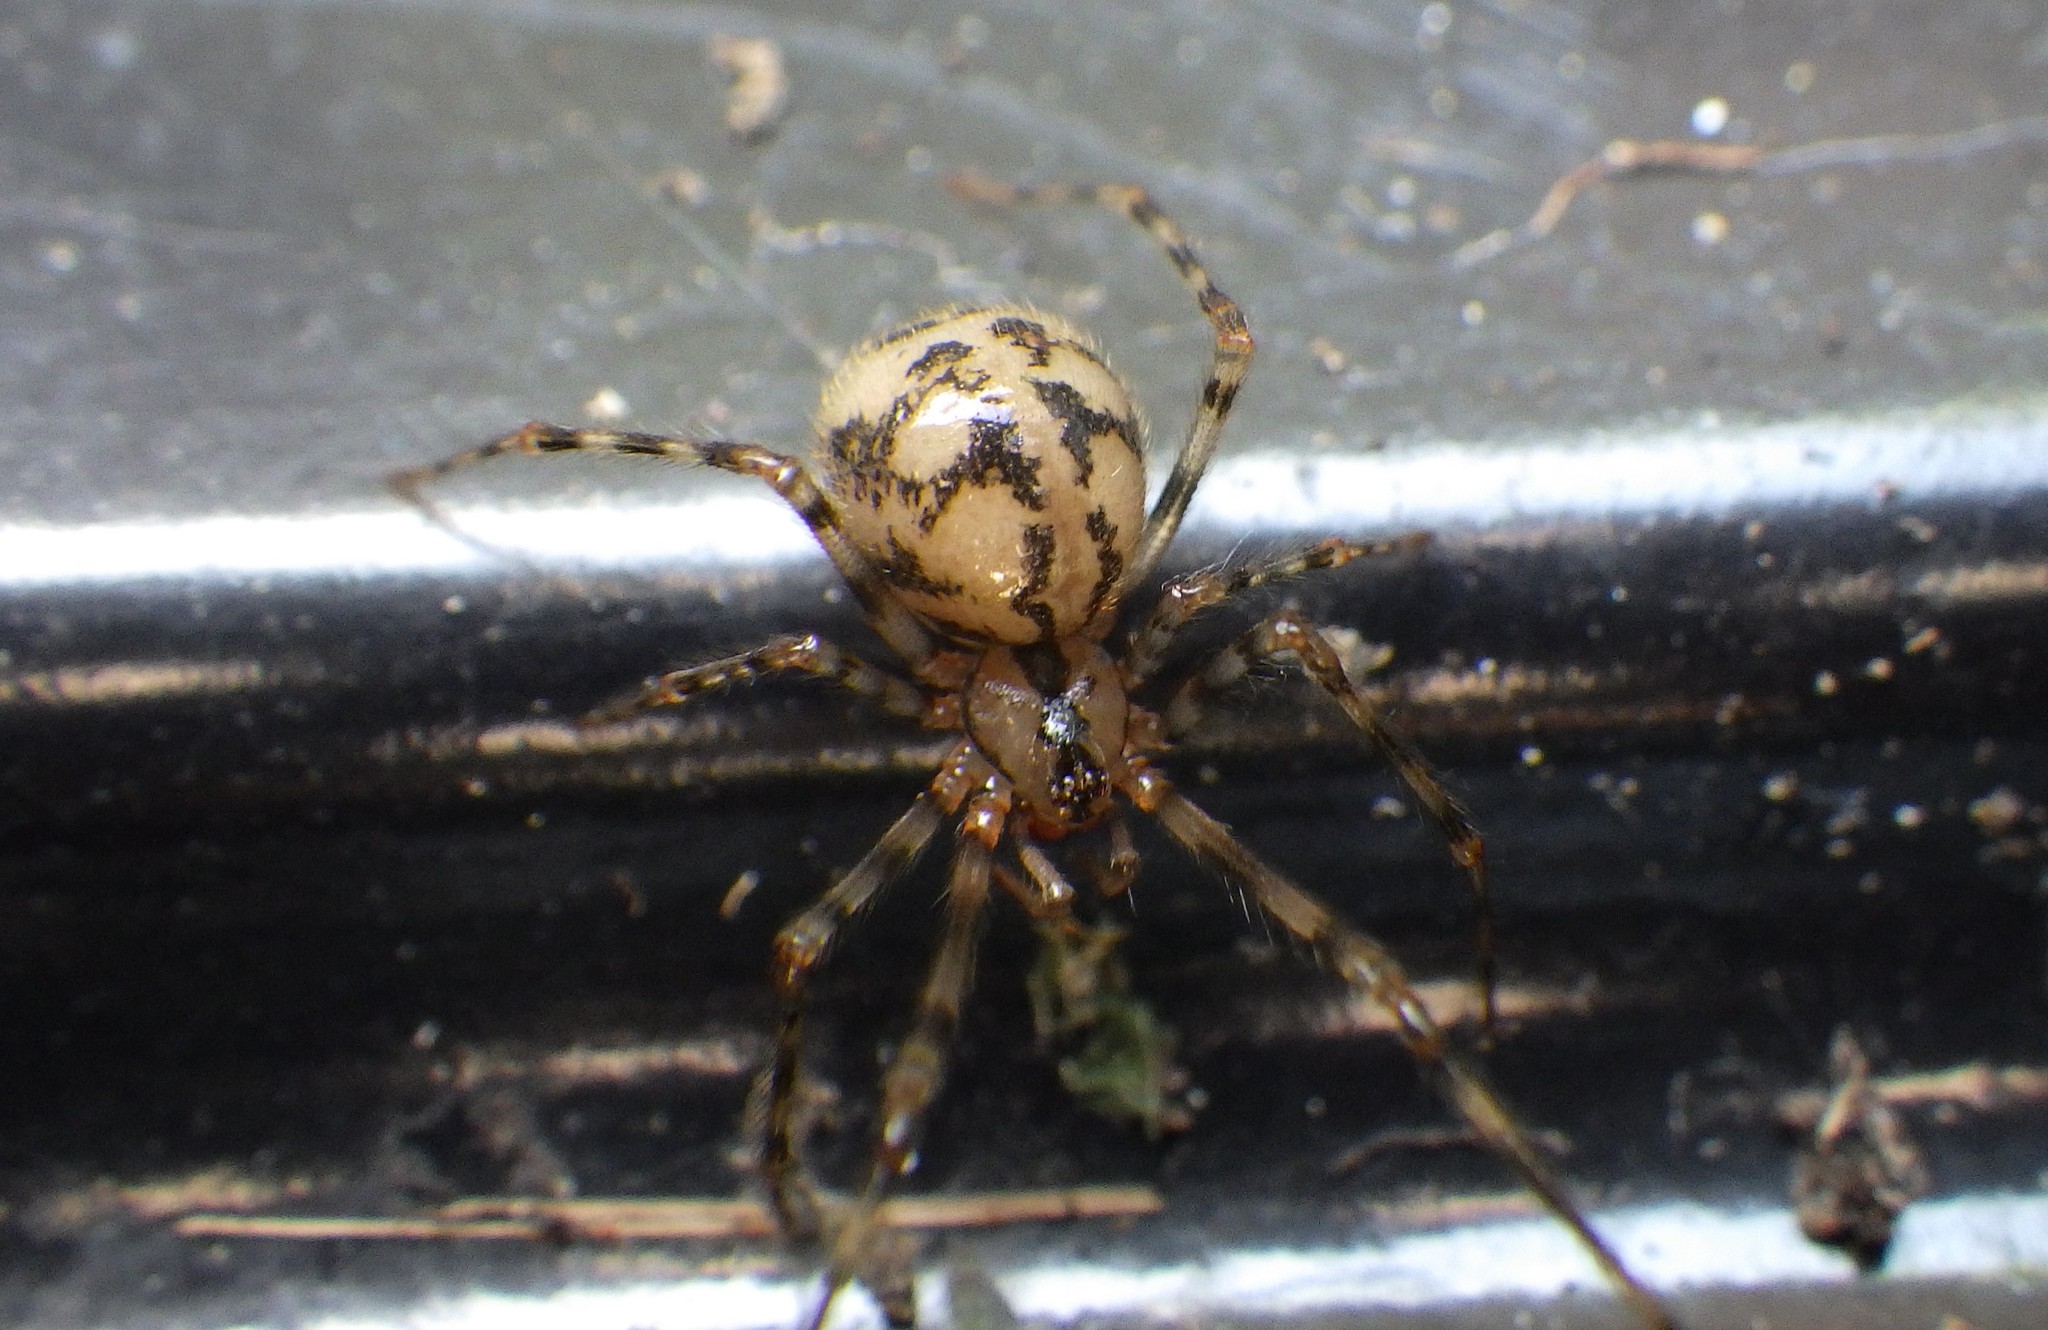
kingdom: Animalia
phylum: Arthropoda
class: Arachnida
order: Araneae
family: Nesticidae
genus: Nesticus
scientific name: Nesticus cellulanus
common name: Comb-footed cellar spider
